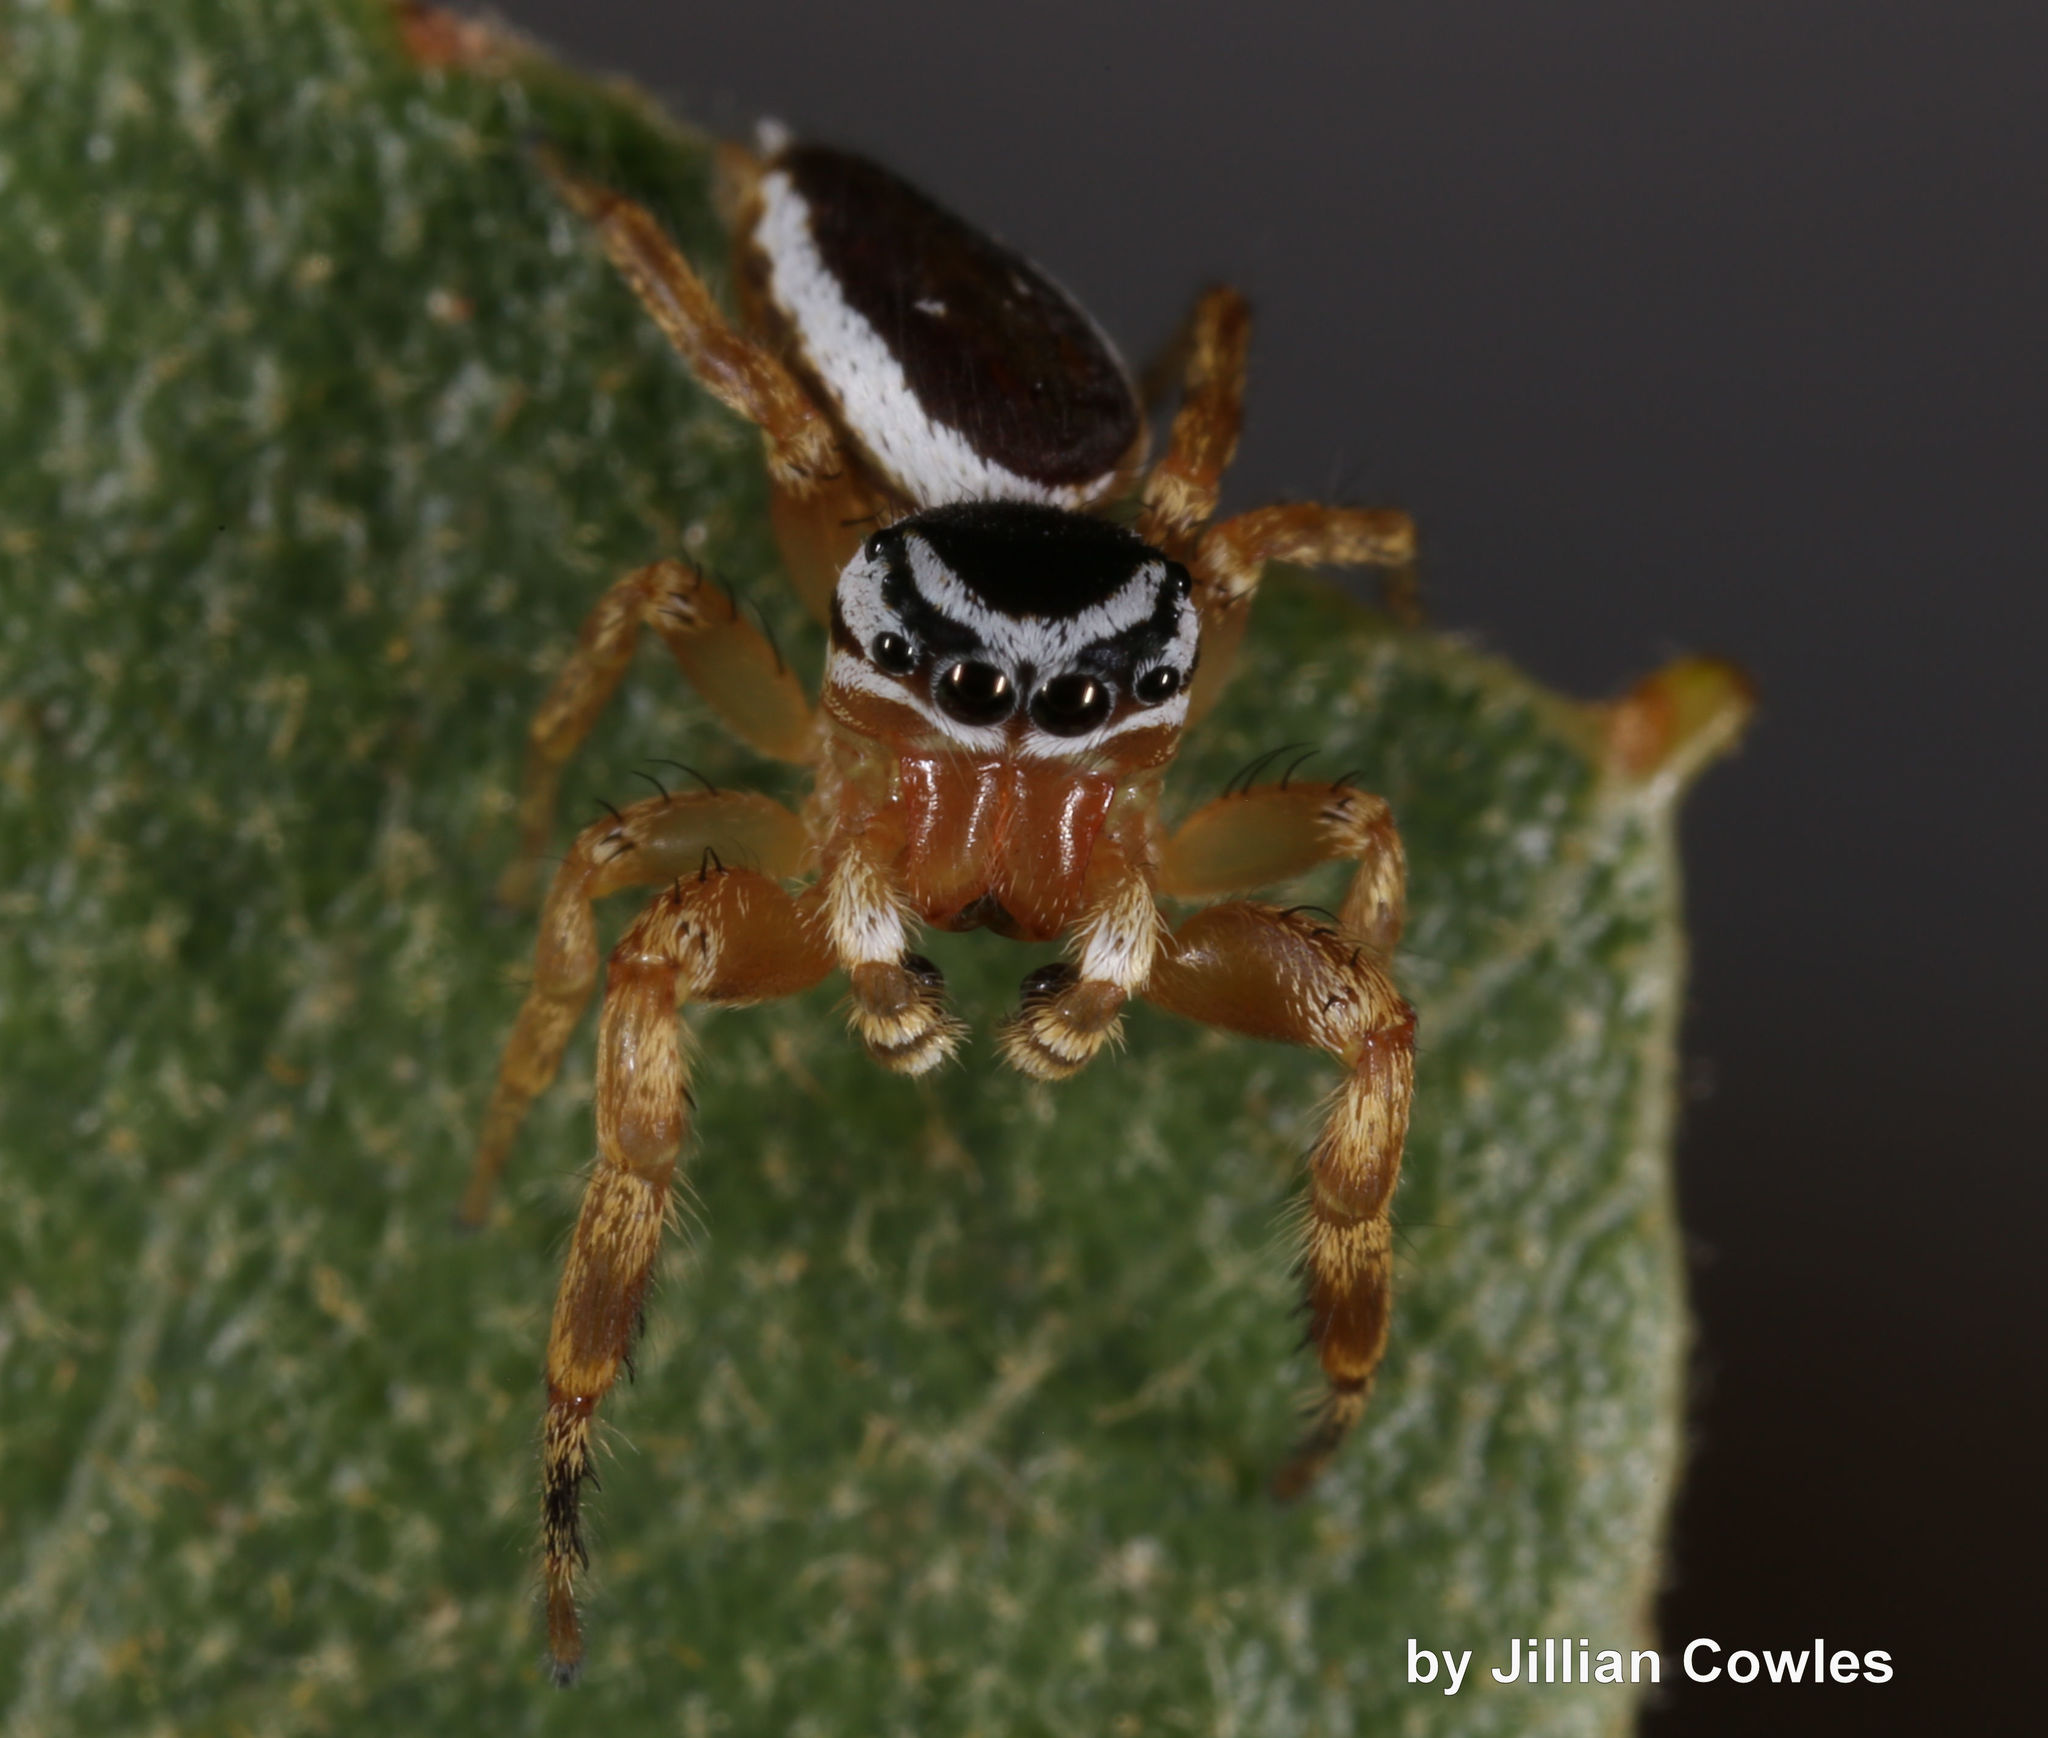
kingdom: Animalia
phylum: Arthropoda
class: Arachnida
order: Araneae
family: Salticidae
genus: Pelegrina
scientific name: Pelegrina kastoni
